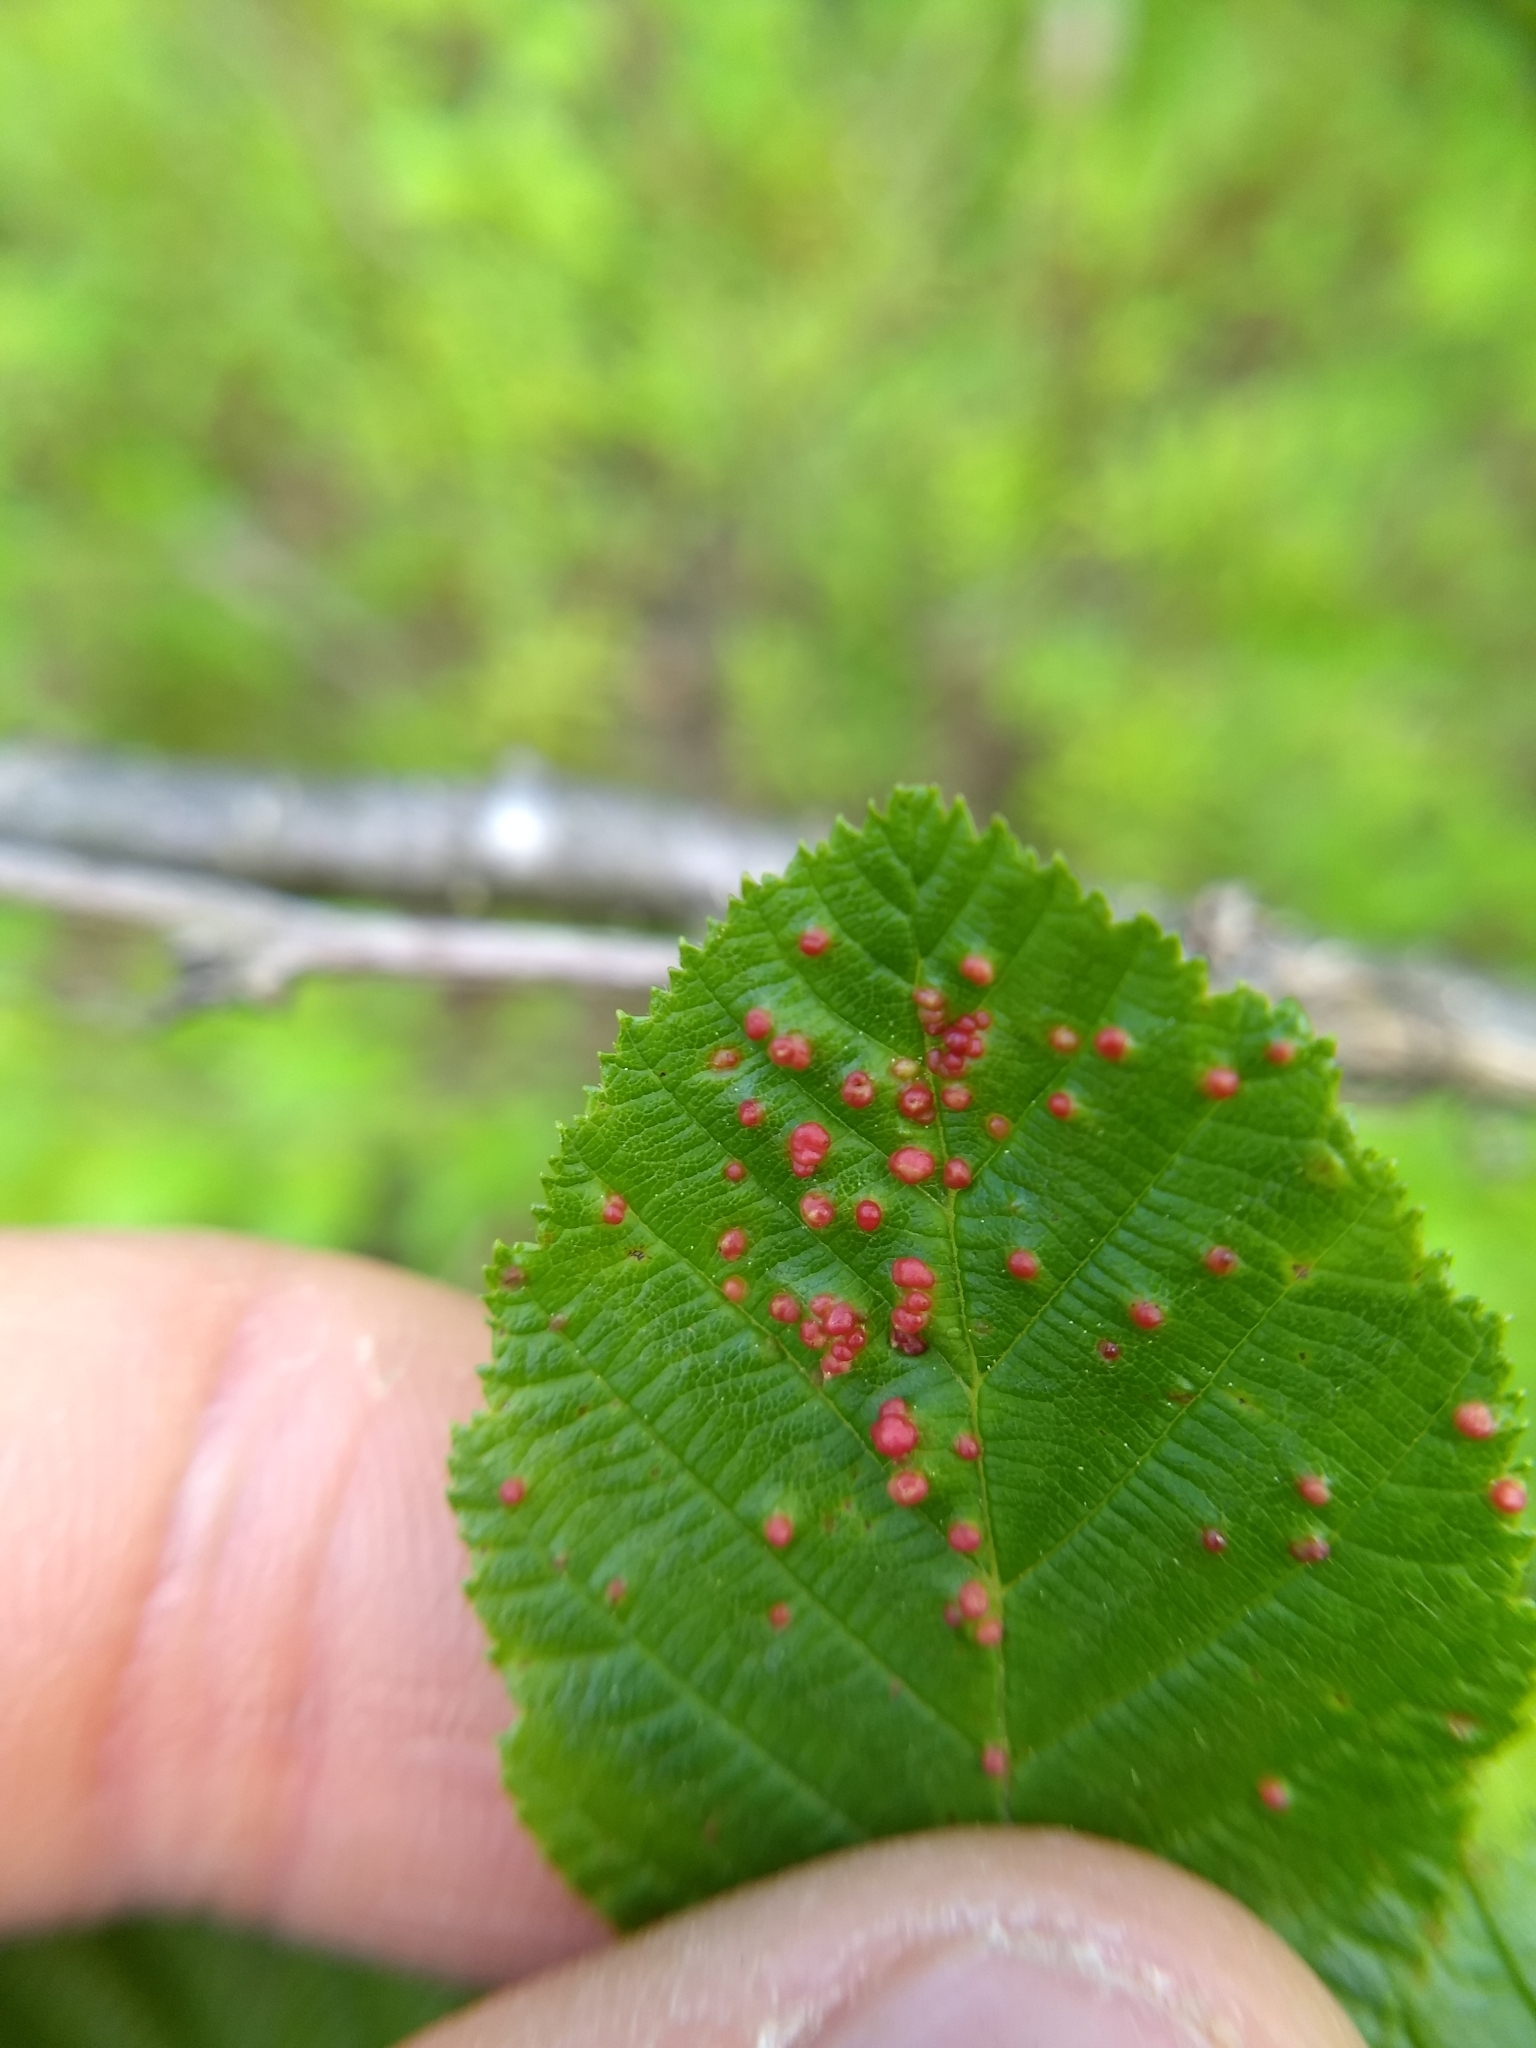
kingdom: Animalia
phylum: Arthropoda
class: Arachnida
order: Trombidiformes
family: Eriophyidae
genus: Eriophyes
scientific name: Eriophyes laevis
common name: Alder leaf gall mite
